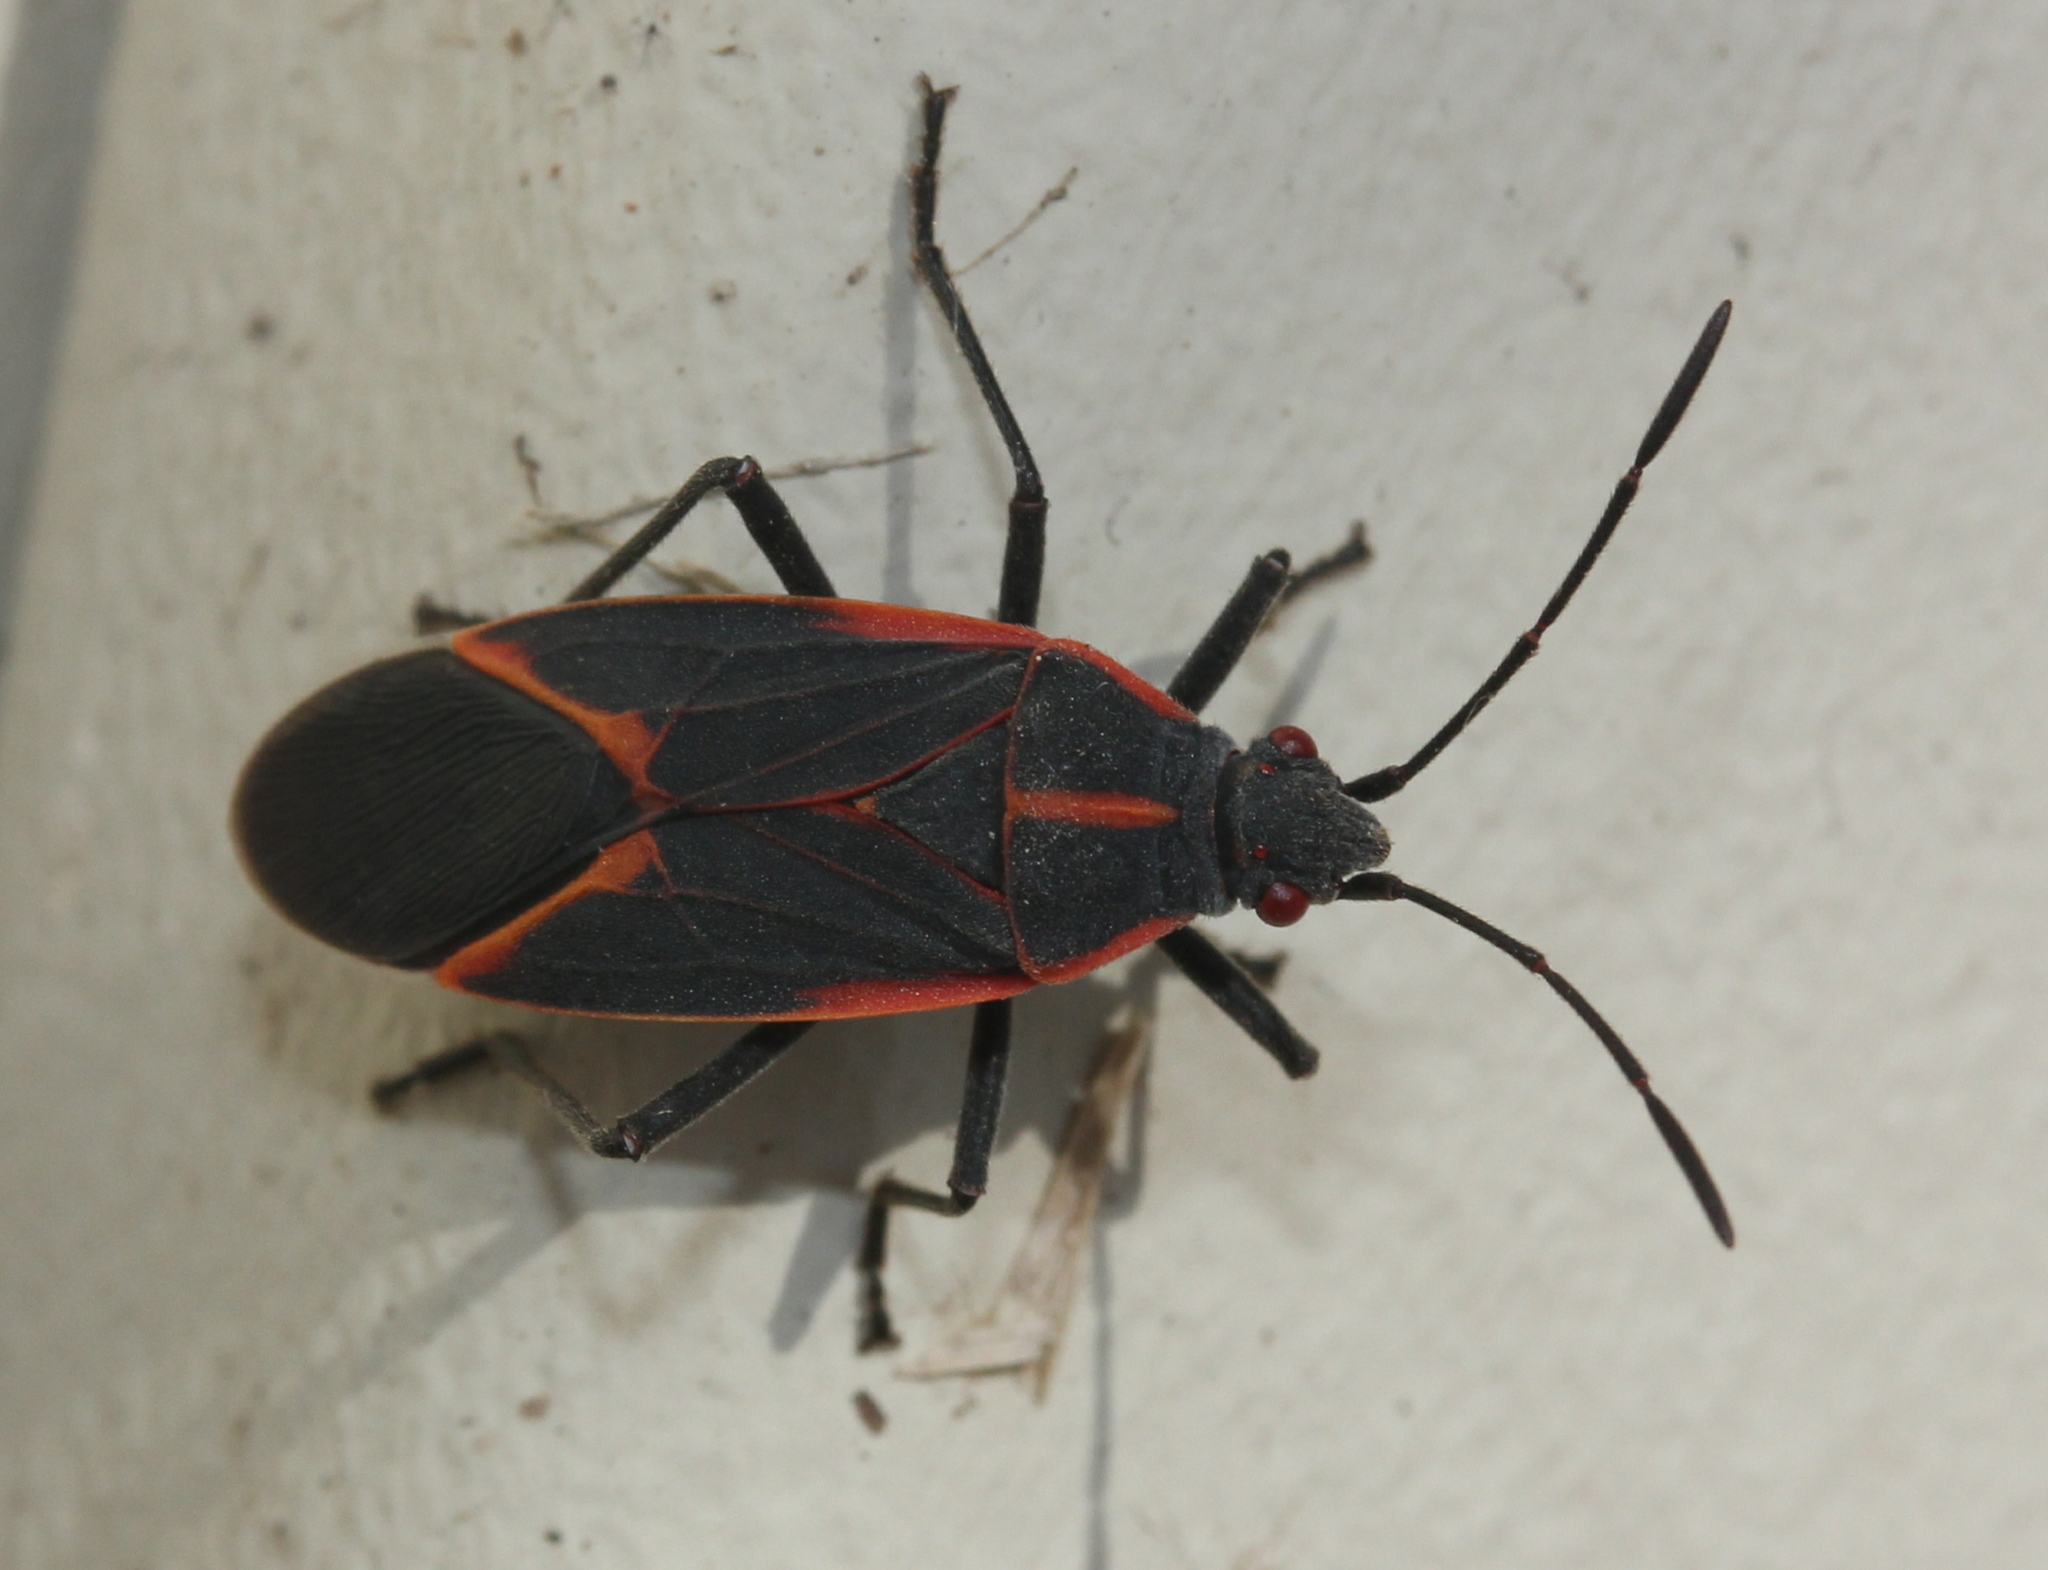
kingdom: Animalia
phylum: Arthropoda
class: Insecta
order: Hemiptera
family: Rhopalidae
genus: Boisea
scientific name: Boisea trivittata
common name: Boxelder bug
